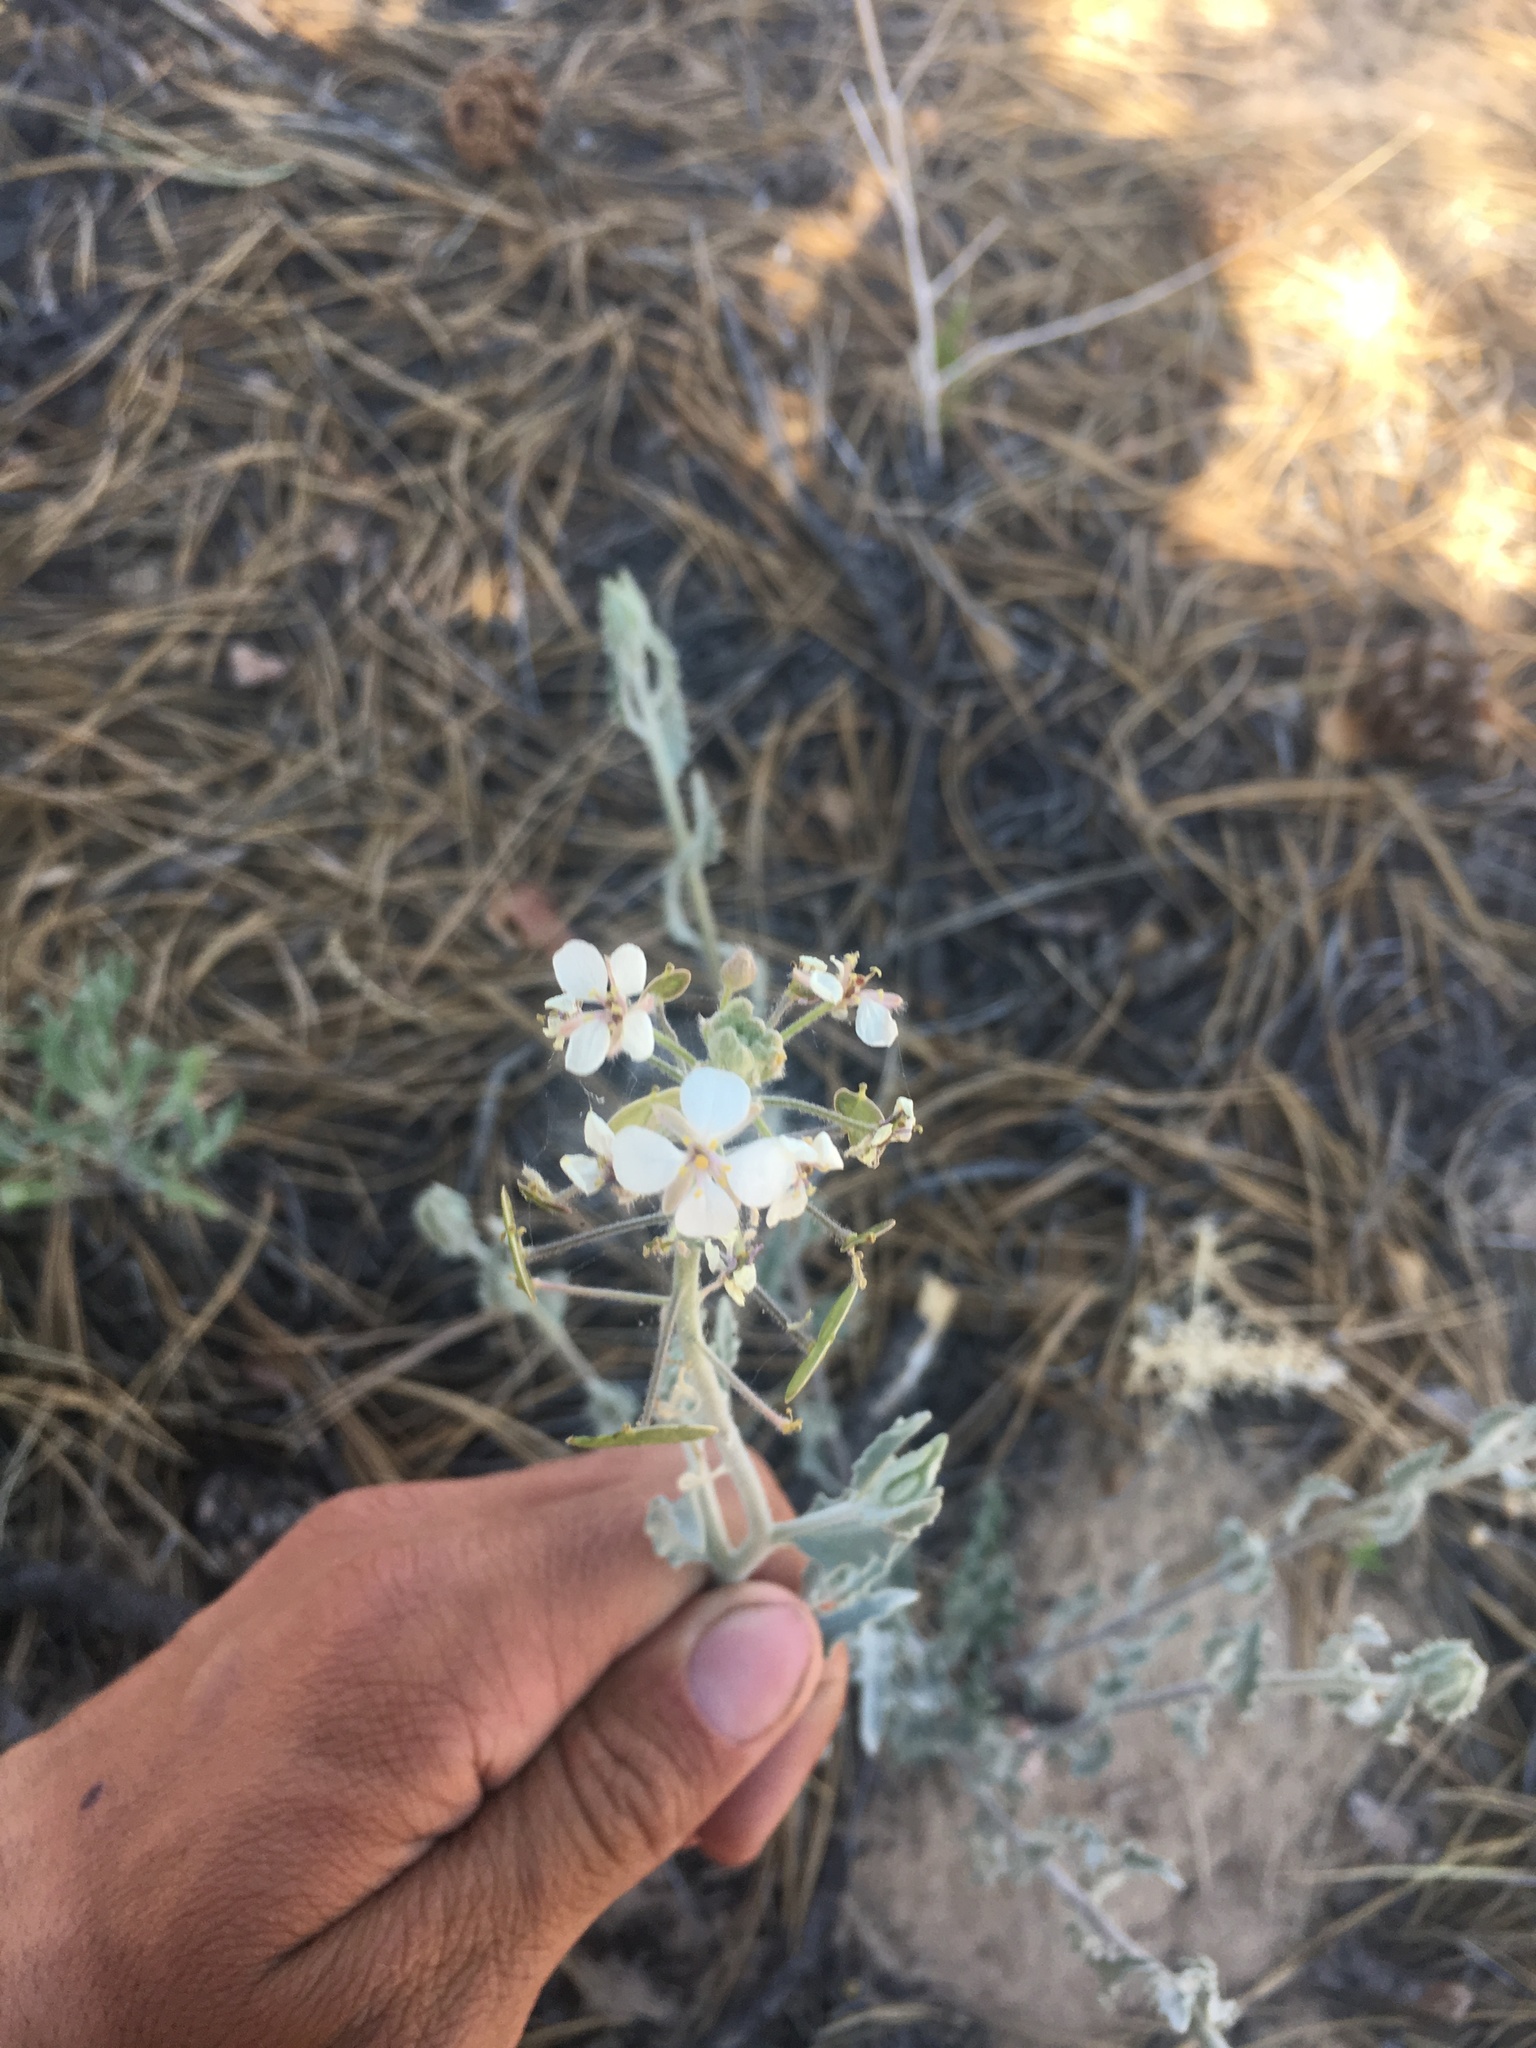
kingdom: Plantae
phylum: Tracheophyta
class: Magnoliopsida
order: Brassicales
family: Brassicaceae
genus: Dimorphocarpa
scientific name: Dimorphocarpa wislizenii
